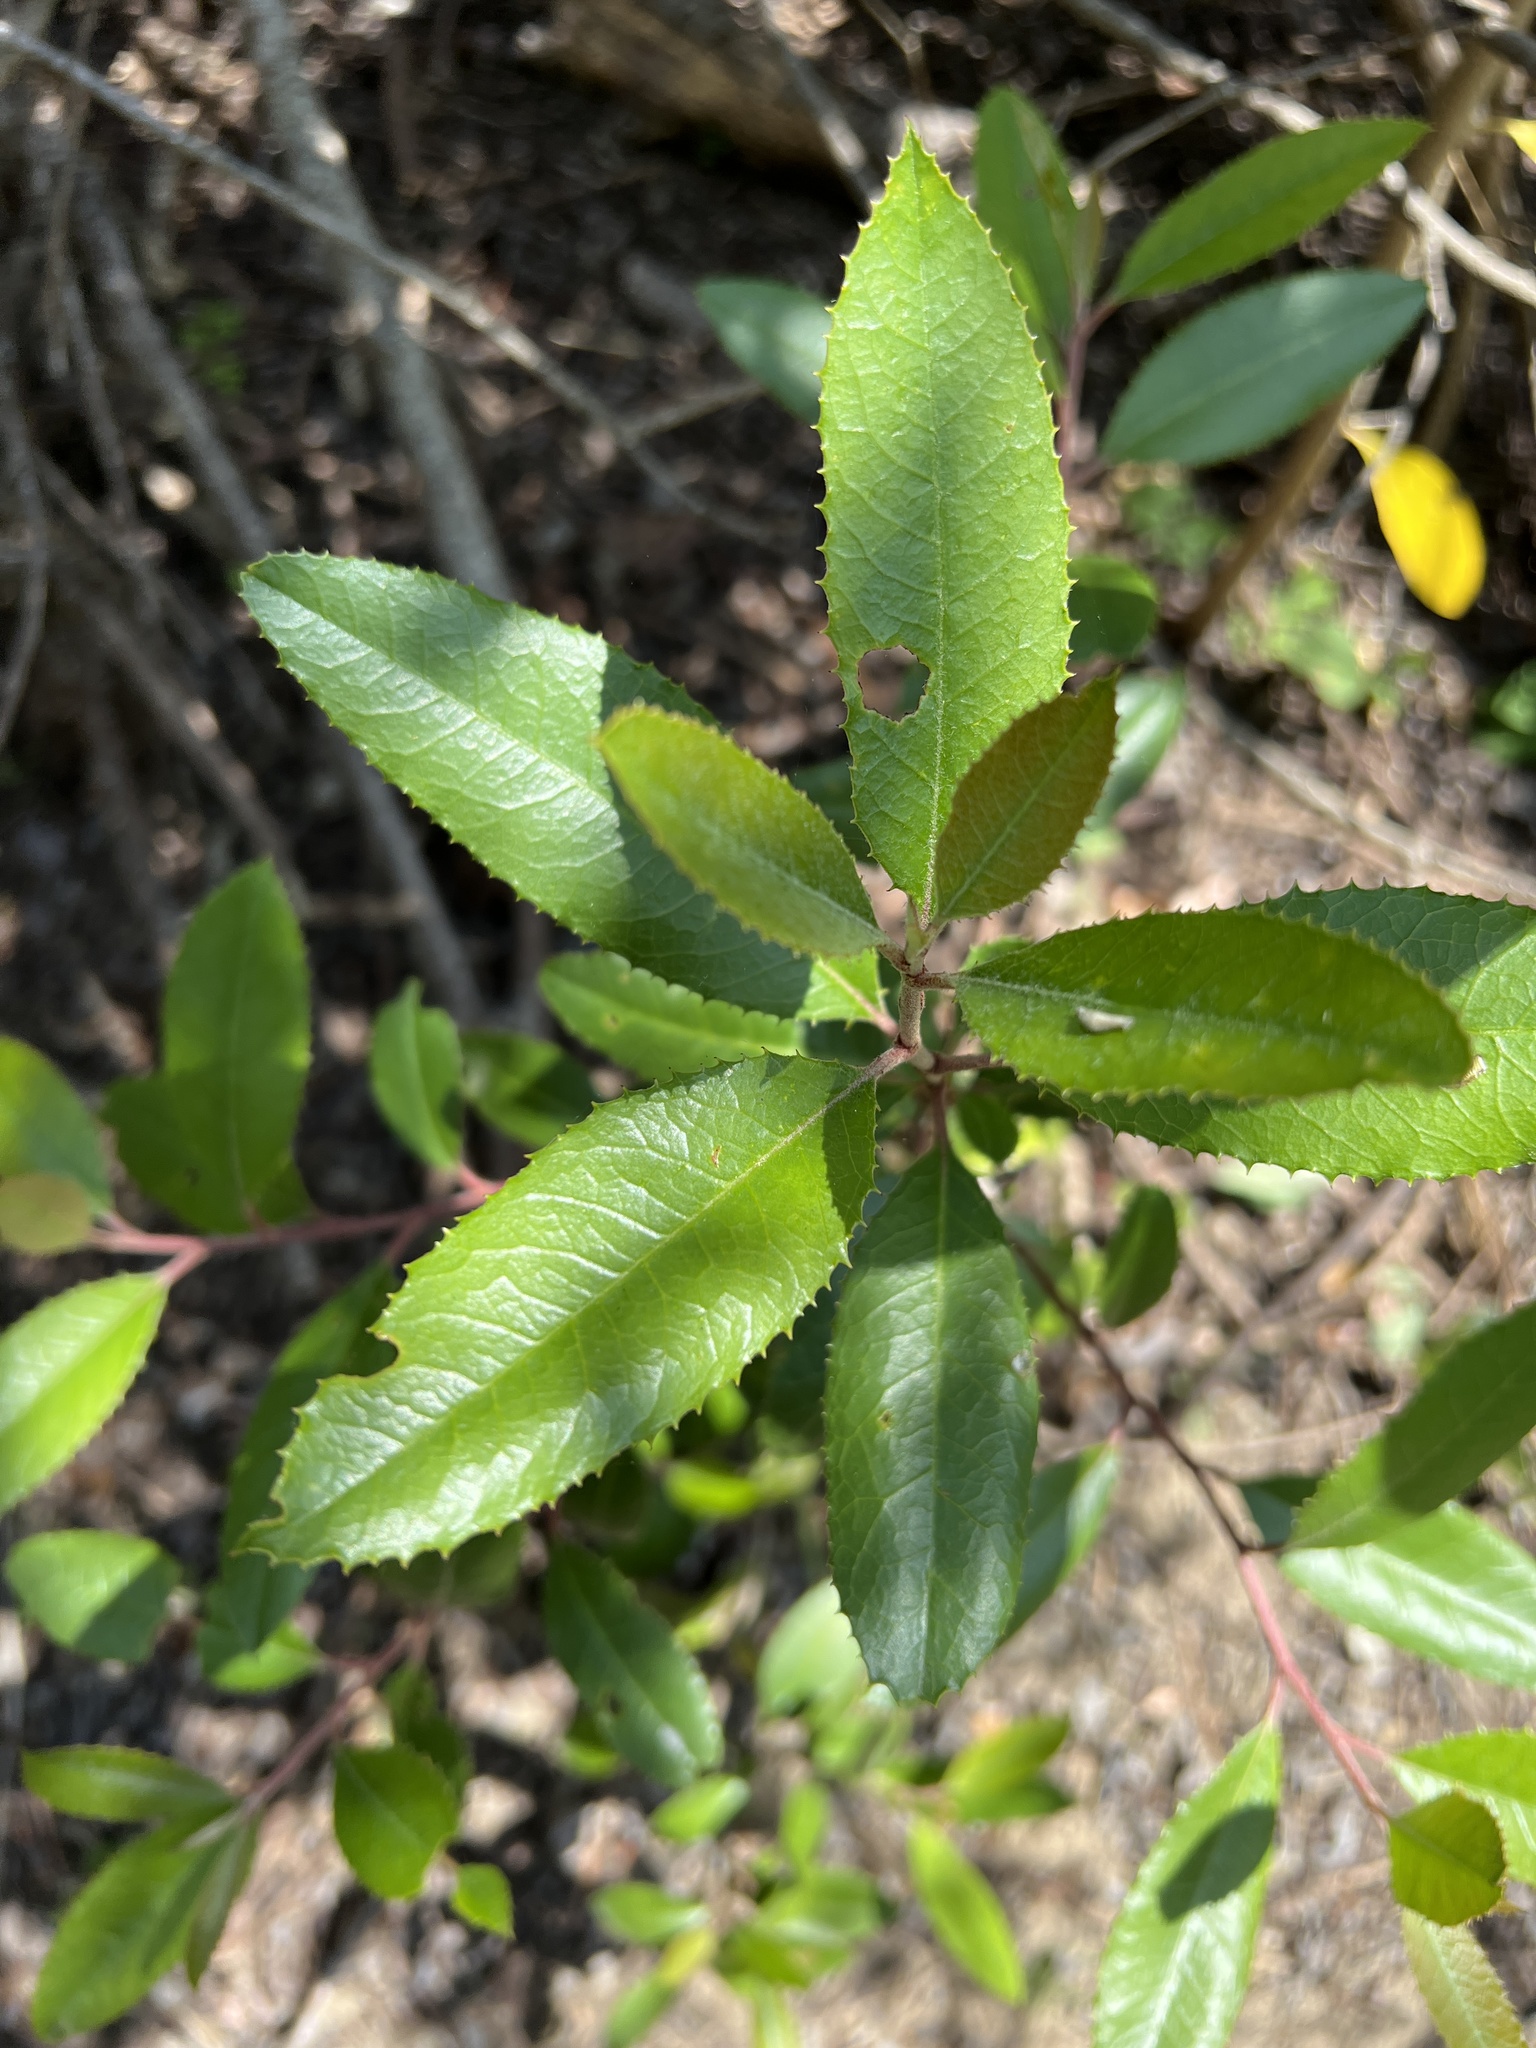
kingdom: Plantae
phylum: Tracheophyta
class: Magnoliopsida
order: Rosales
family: Rosaceae
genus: Heteromeles
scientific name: Heteromeles arbutifolia
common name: California-holly
